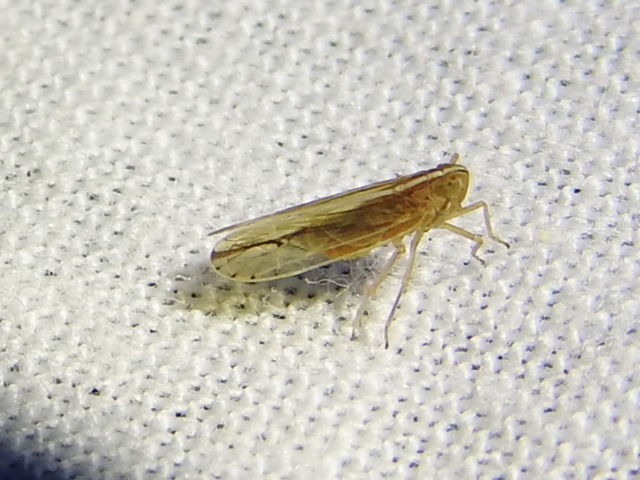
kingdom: Animalia
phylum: Arthropoda
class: Insecta
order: Hemiptera
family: Delphacidae
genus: Stenocranus
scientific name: Stenocranus dorsalis
